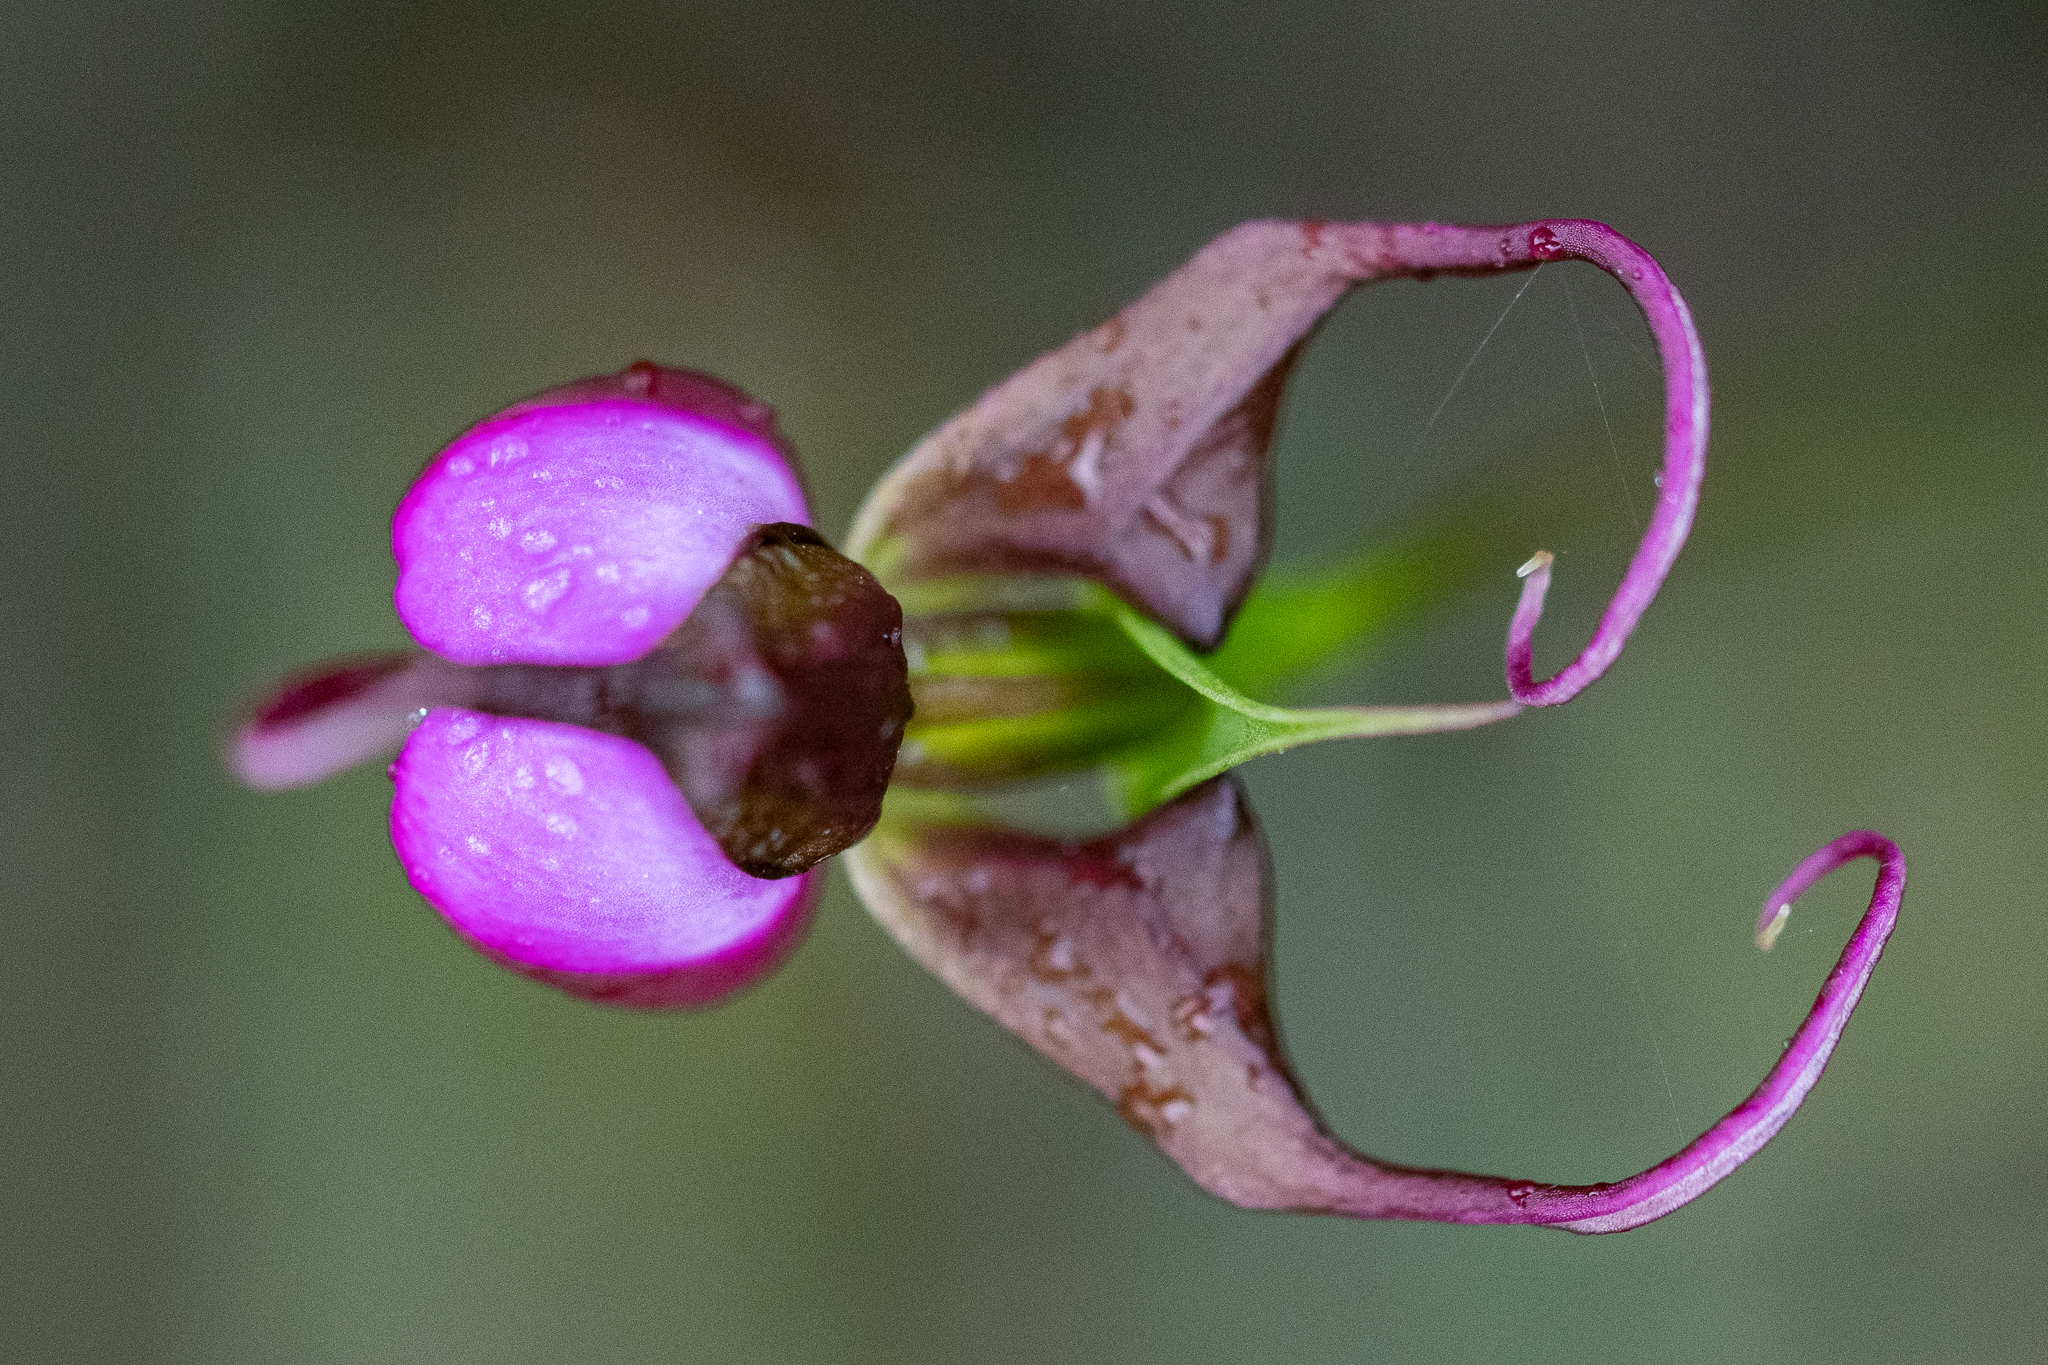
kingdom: Plantae
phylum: Tracheophyta
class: Liliopsida
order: Asparagales
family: Orchidaceae
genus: Disperis
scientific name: Disperis capensis
